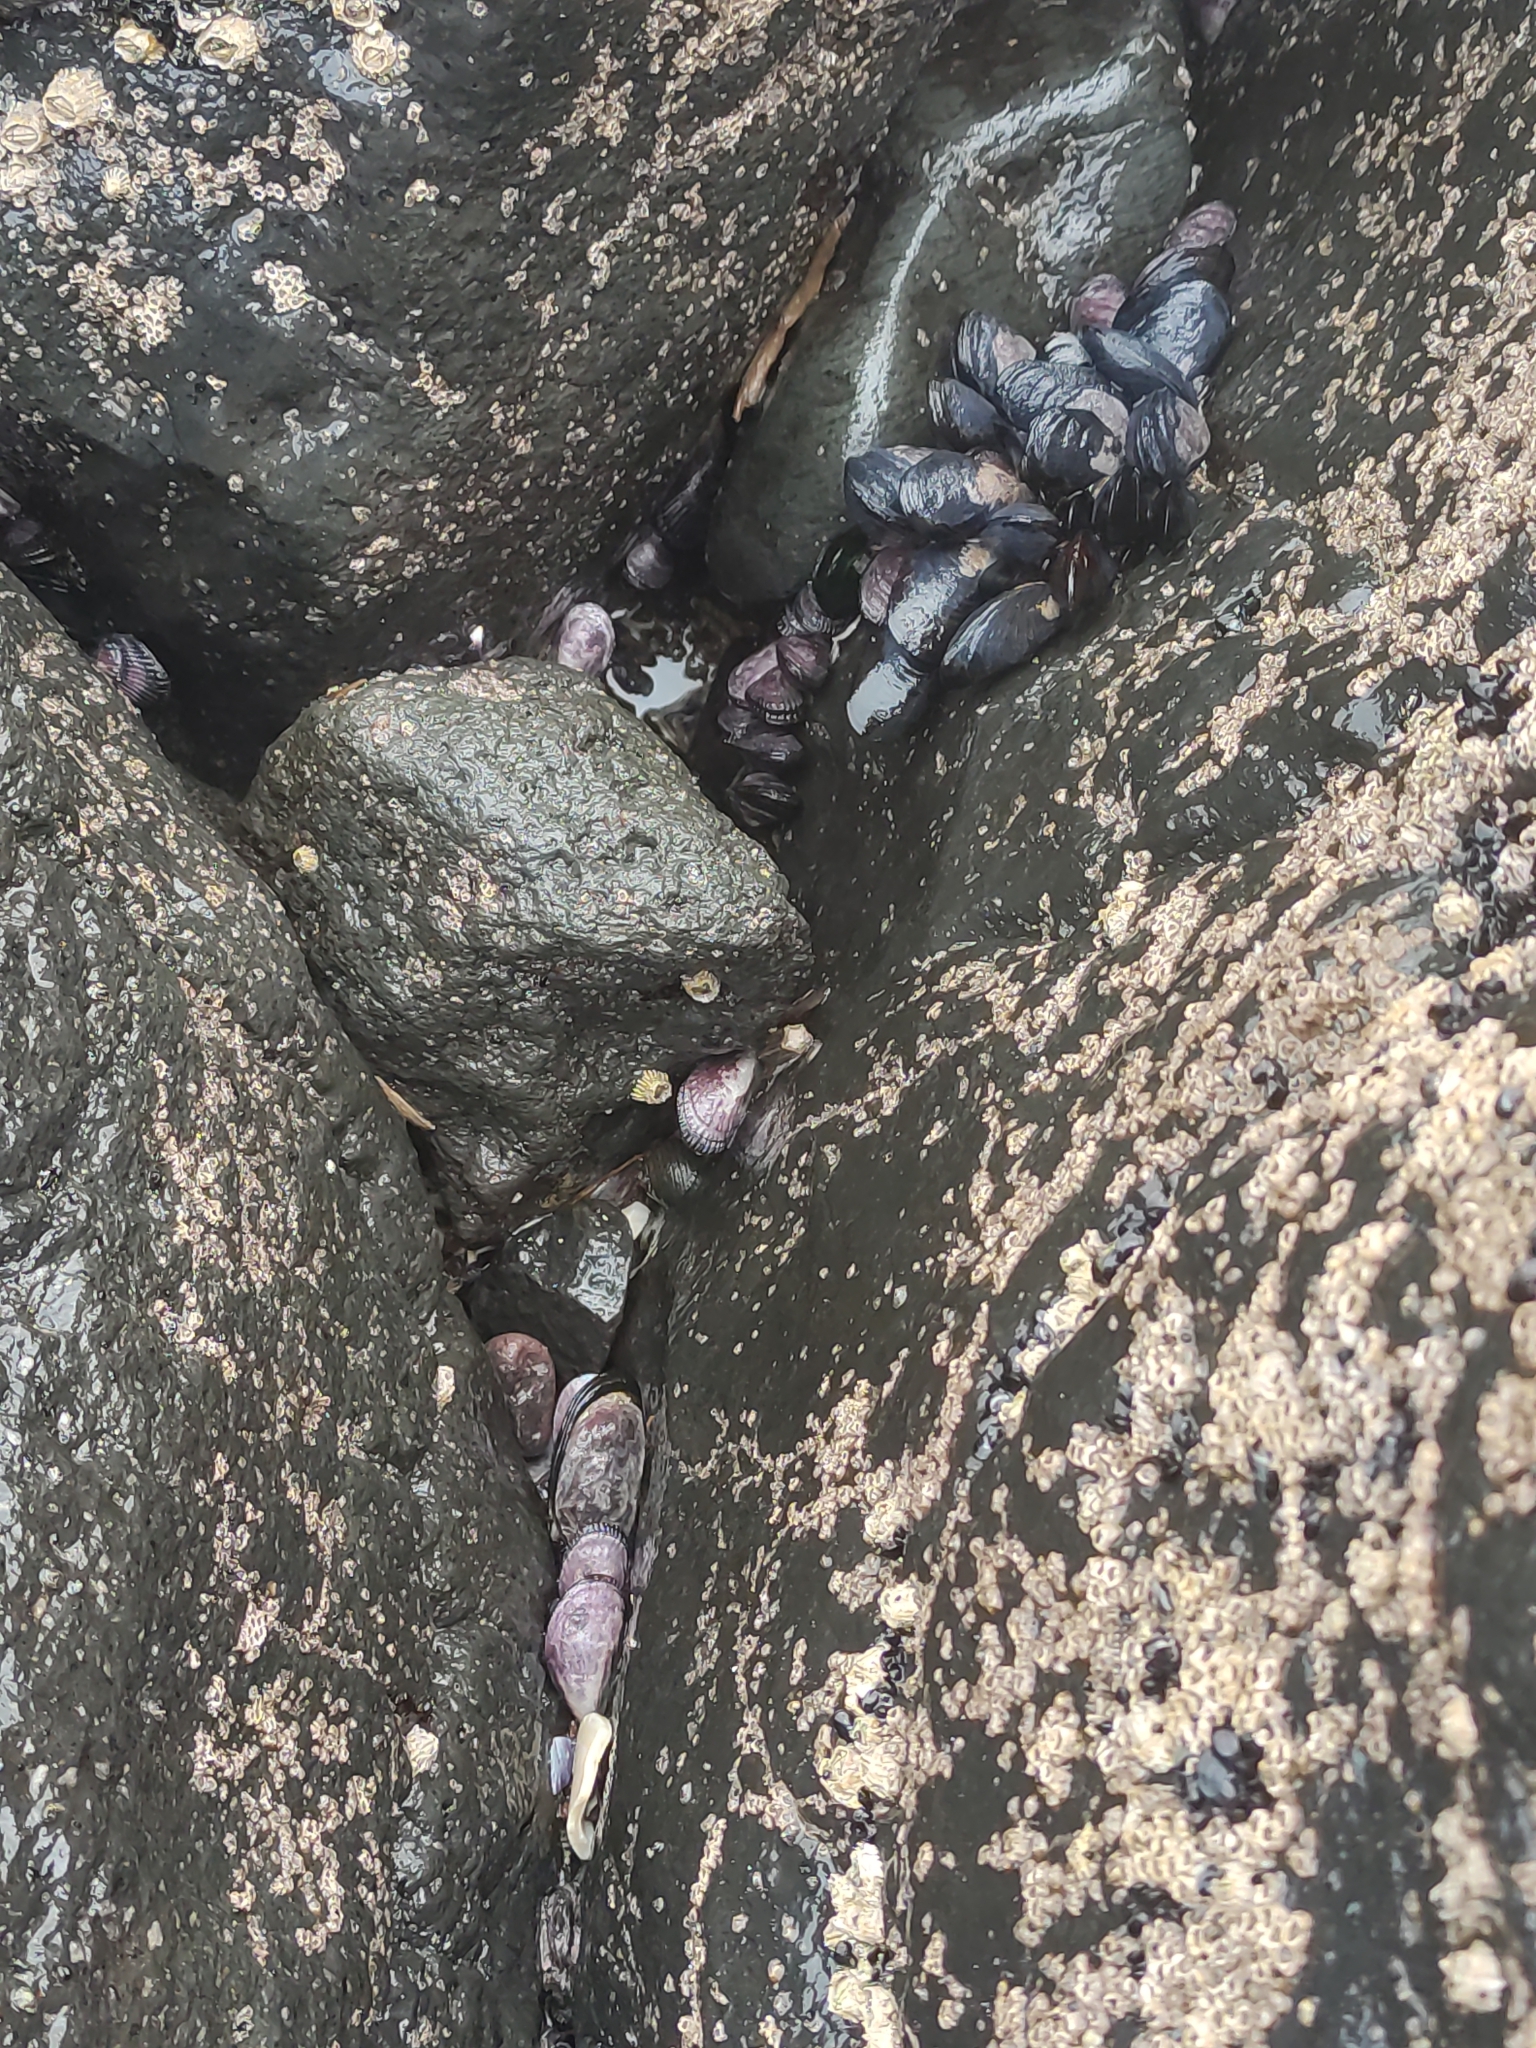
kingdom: Animalia
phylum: Mollusca
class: Bivalvia
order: Mytilida
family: Mytilidae
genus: Aulacomya
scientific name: Aulacomya maoriana
